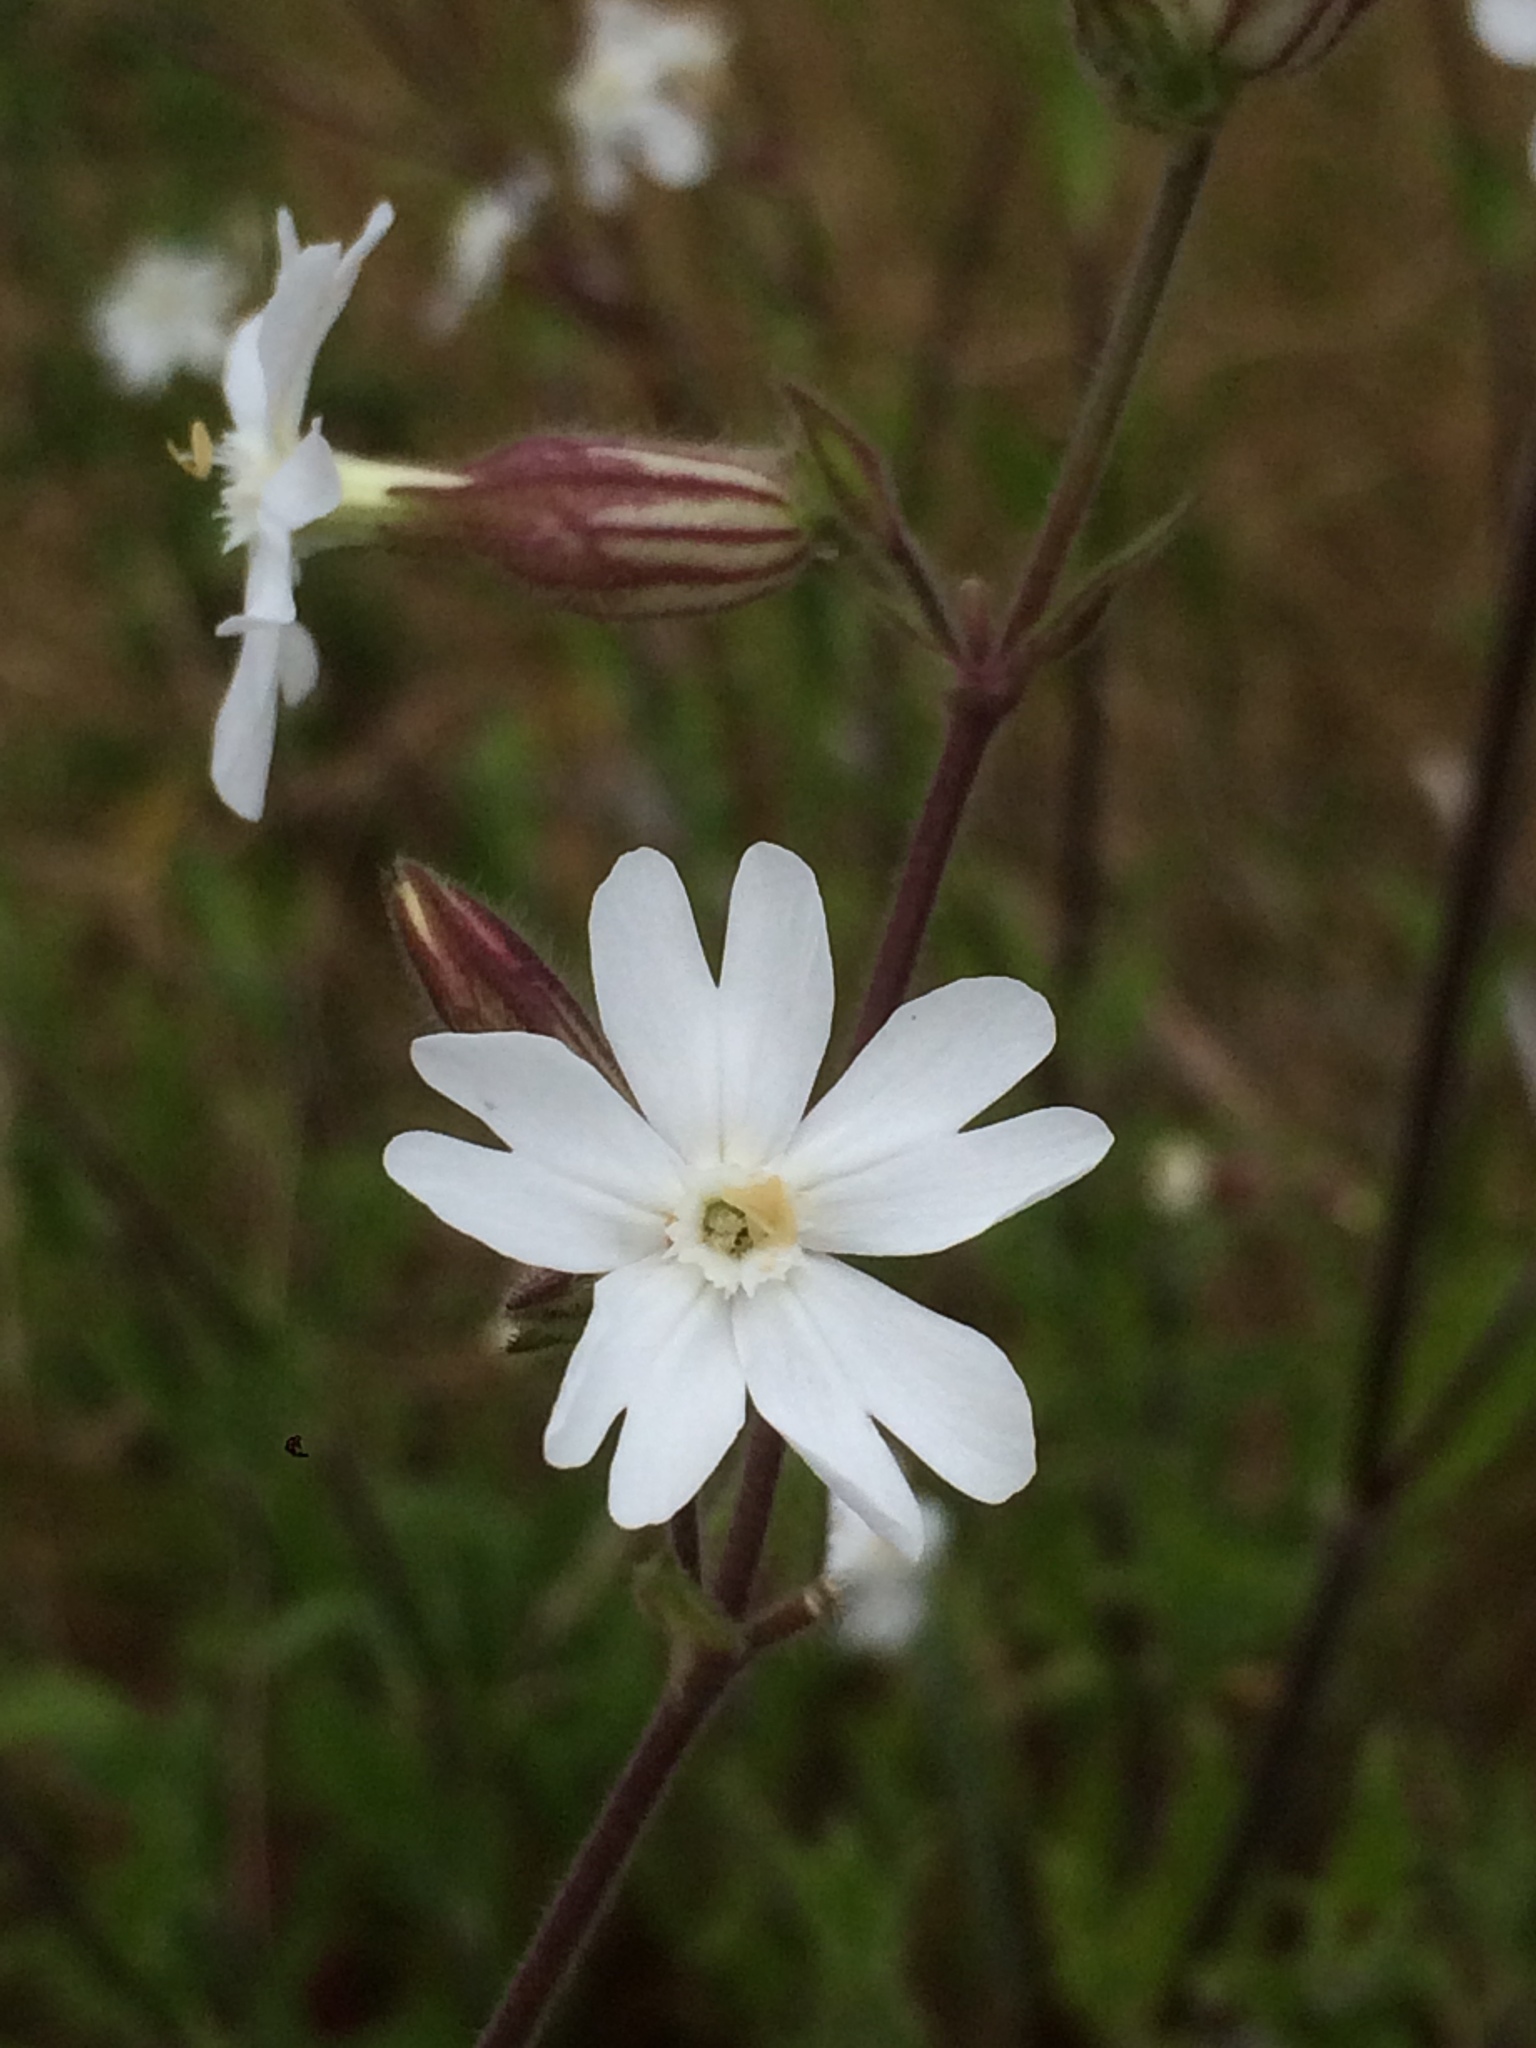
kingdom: Plantae
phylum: Tracheophyta
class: Magnoliopsida
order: Caryophyllales
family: Caryophyllaceae
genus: Silene
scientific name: Silene latifolia
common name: White campion
